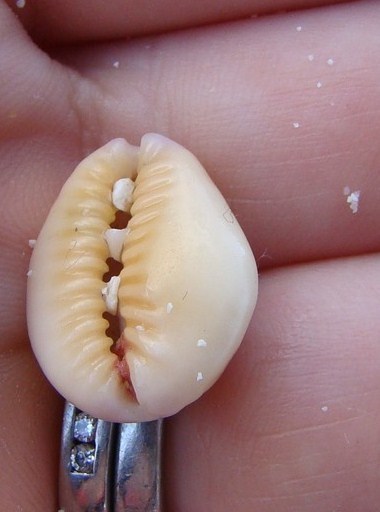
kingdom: Animalia
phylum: Mollusca
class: Gastropoda
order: Littorinimorpha
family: Cypraeidae
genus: Monetaria
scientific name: Monetaria obvelata
